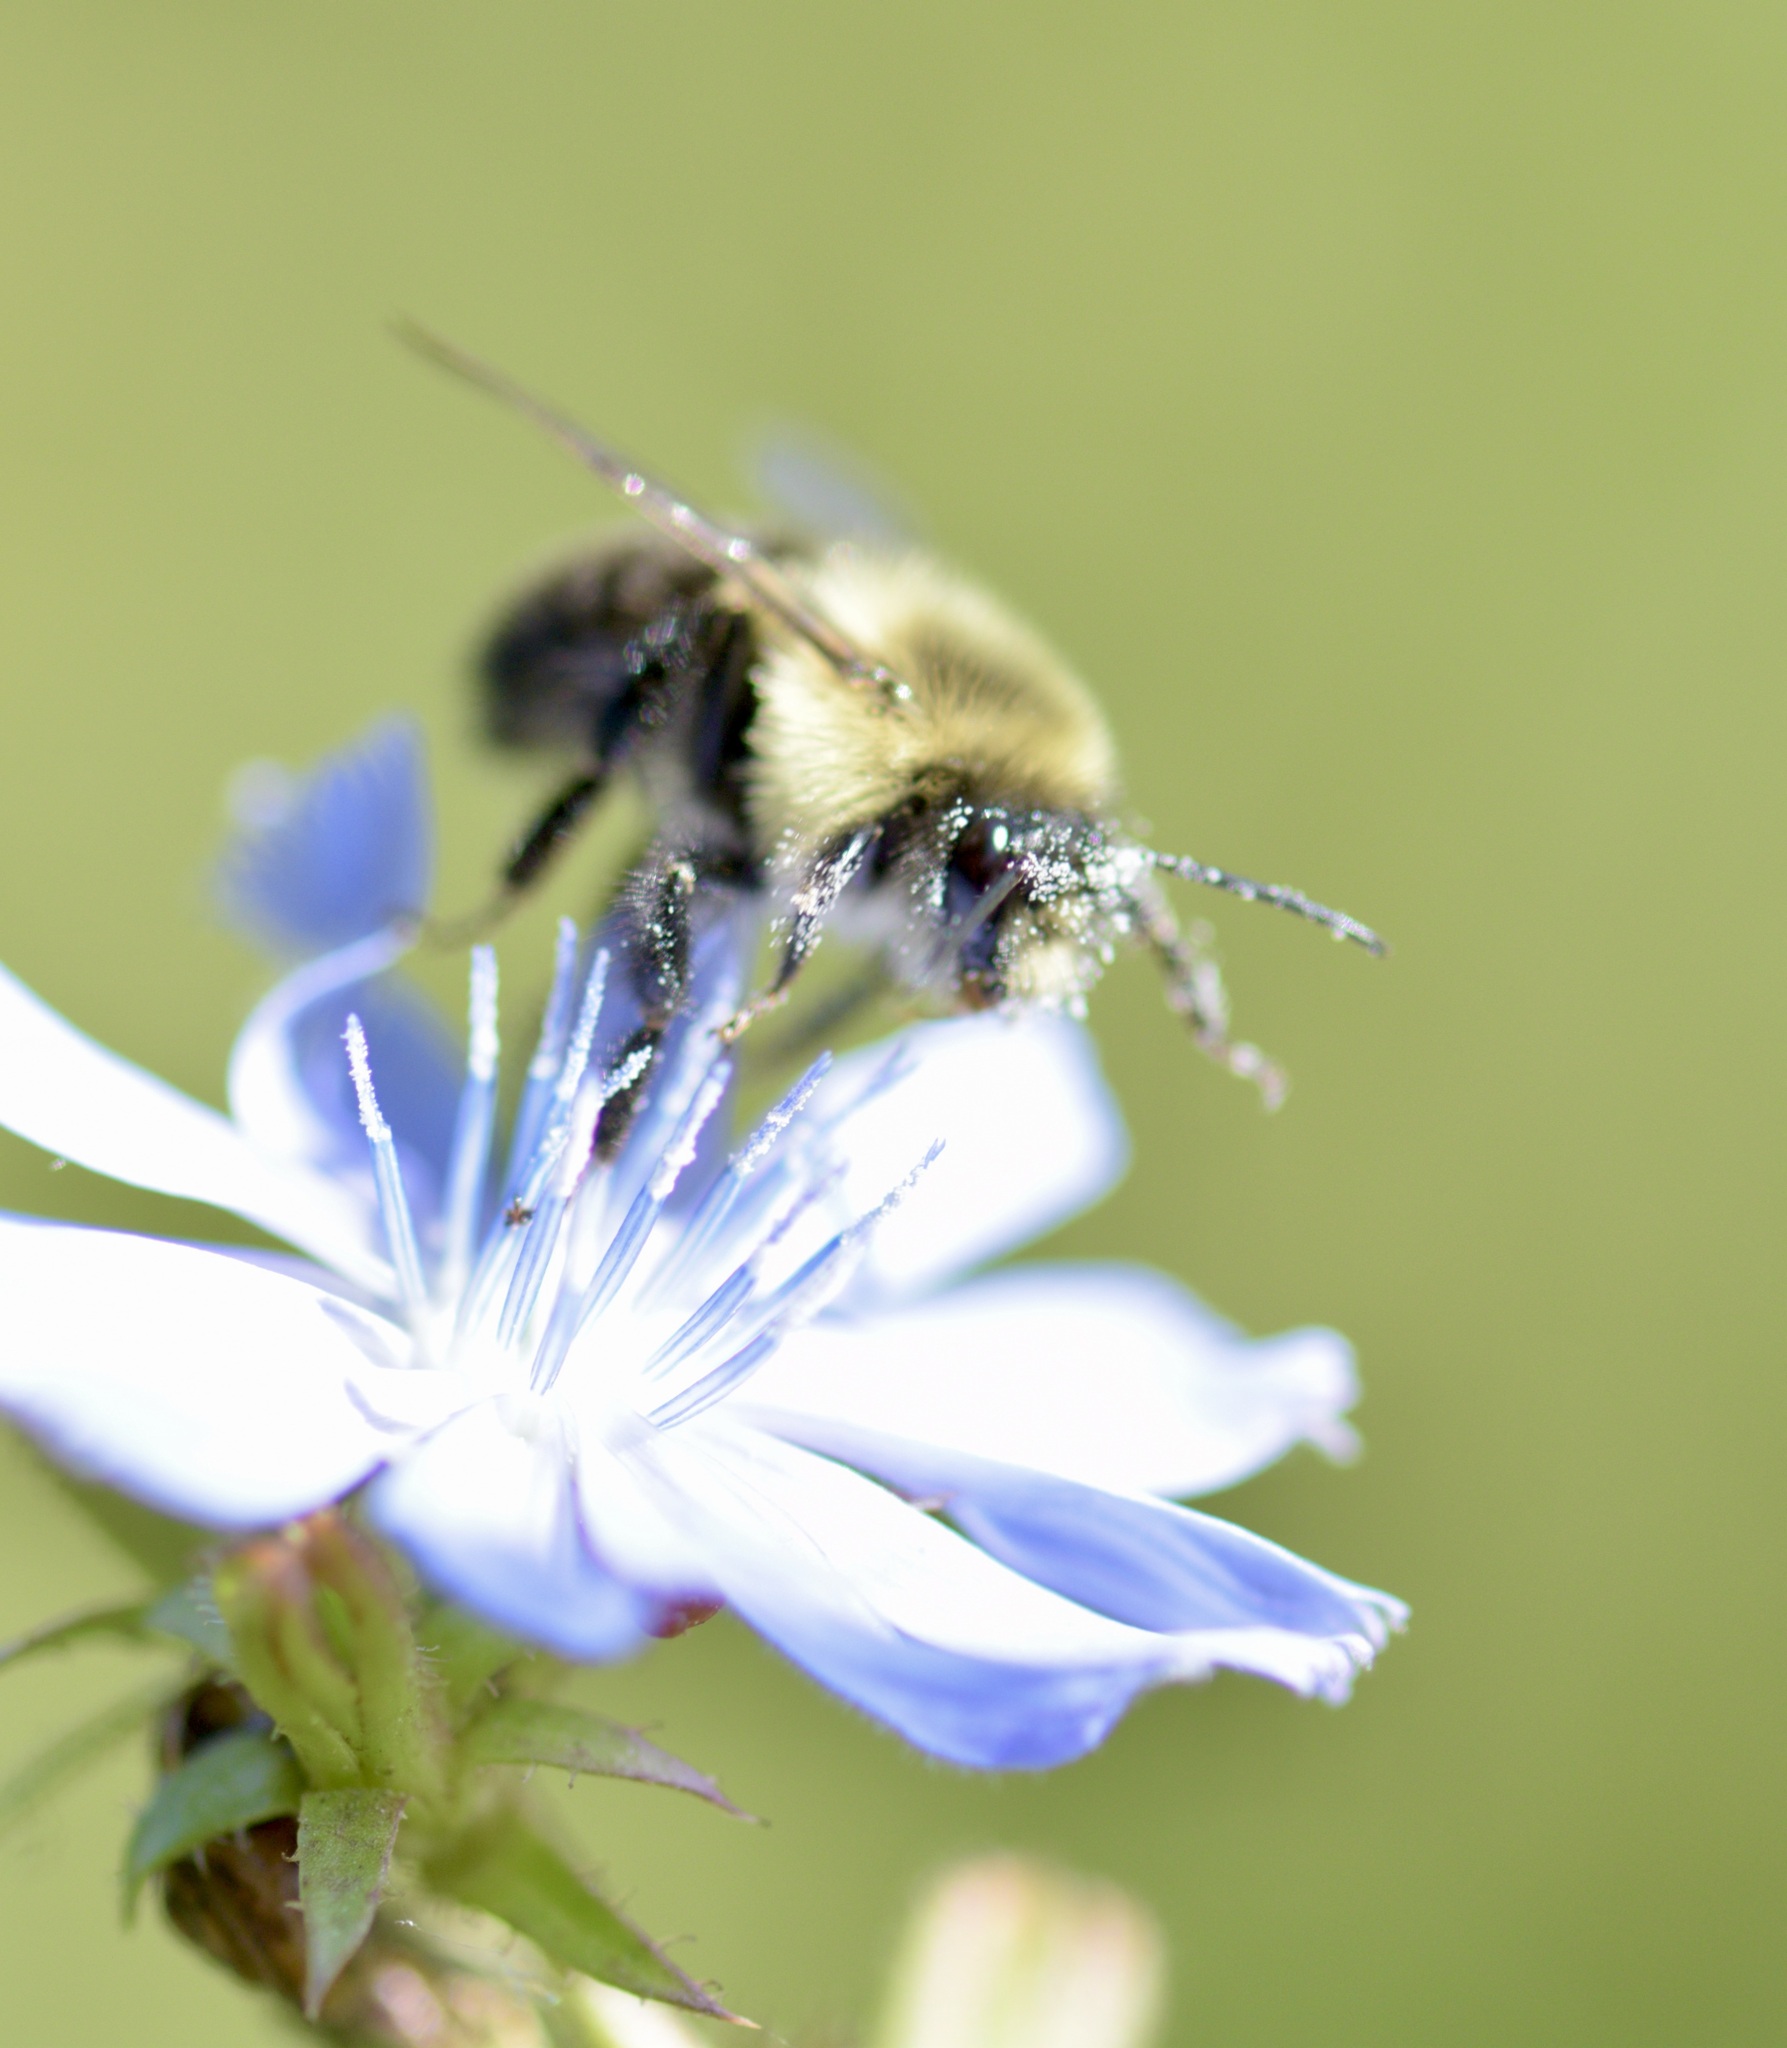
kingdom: Animalia
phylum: Arthropoda
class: Insecta
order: Hymenoptera
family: Apidae
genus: Bombus
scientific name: Bombus impatiens
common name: Common eastern bumble bee
